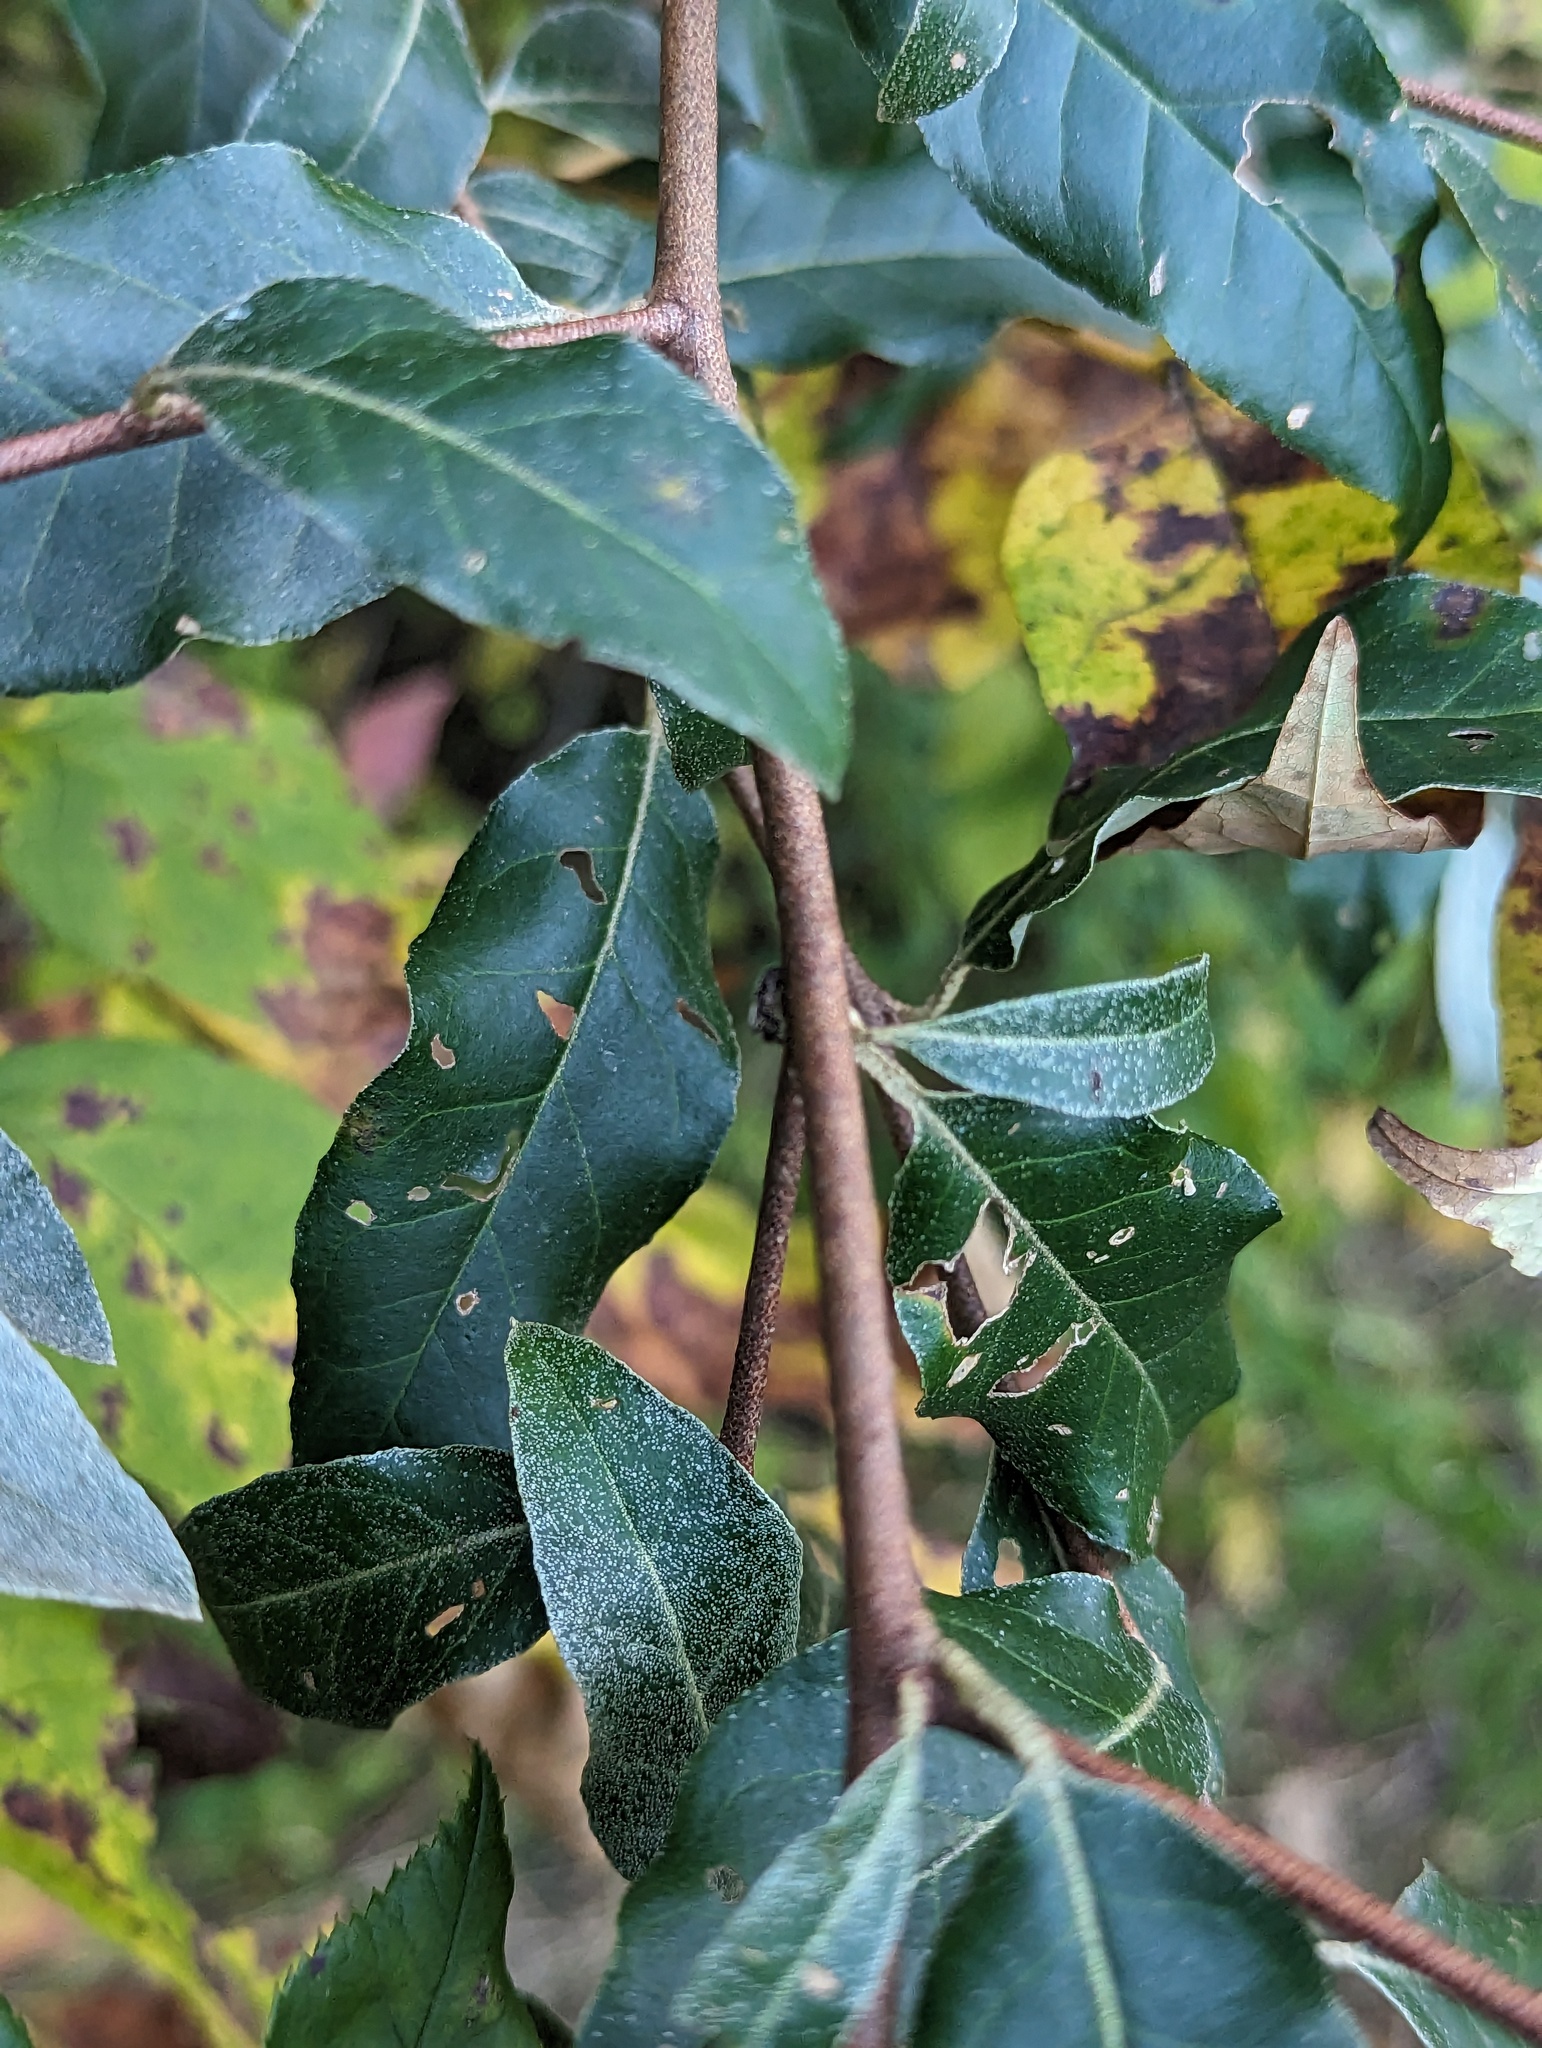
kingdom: Plantae
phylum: Tracheophyta
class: Magnoliopsida
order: Rosales
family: Elaeagnaceae
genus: Elaeagnus
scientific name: Elaeagnus umbellata
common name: Autumn olive
